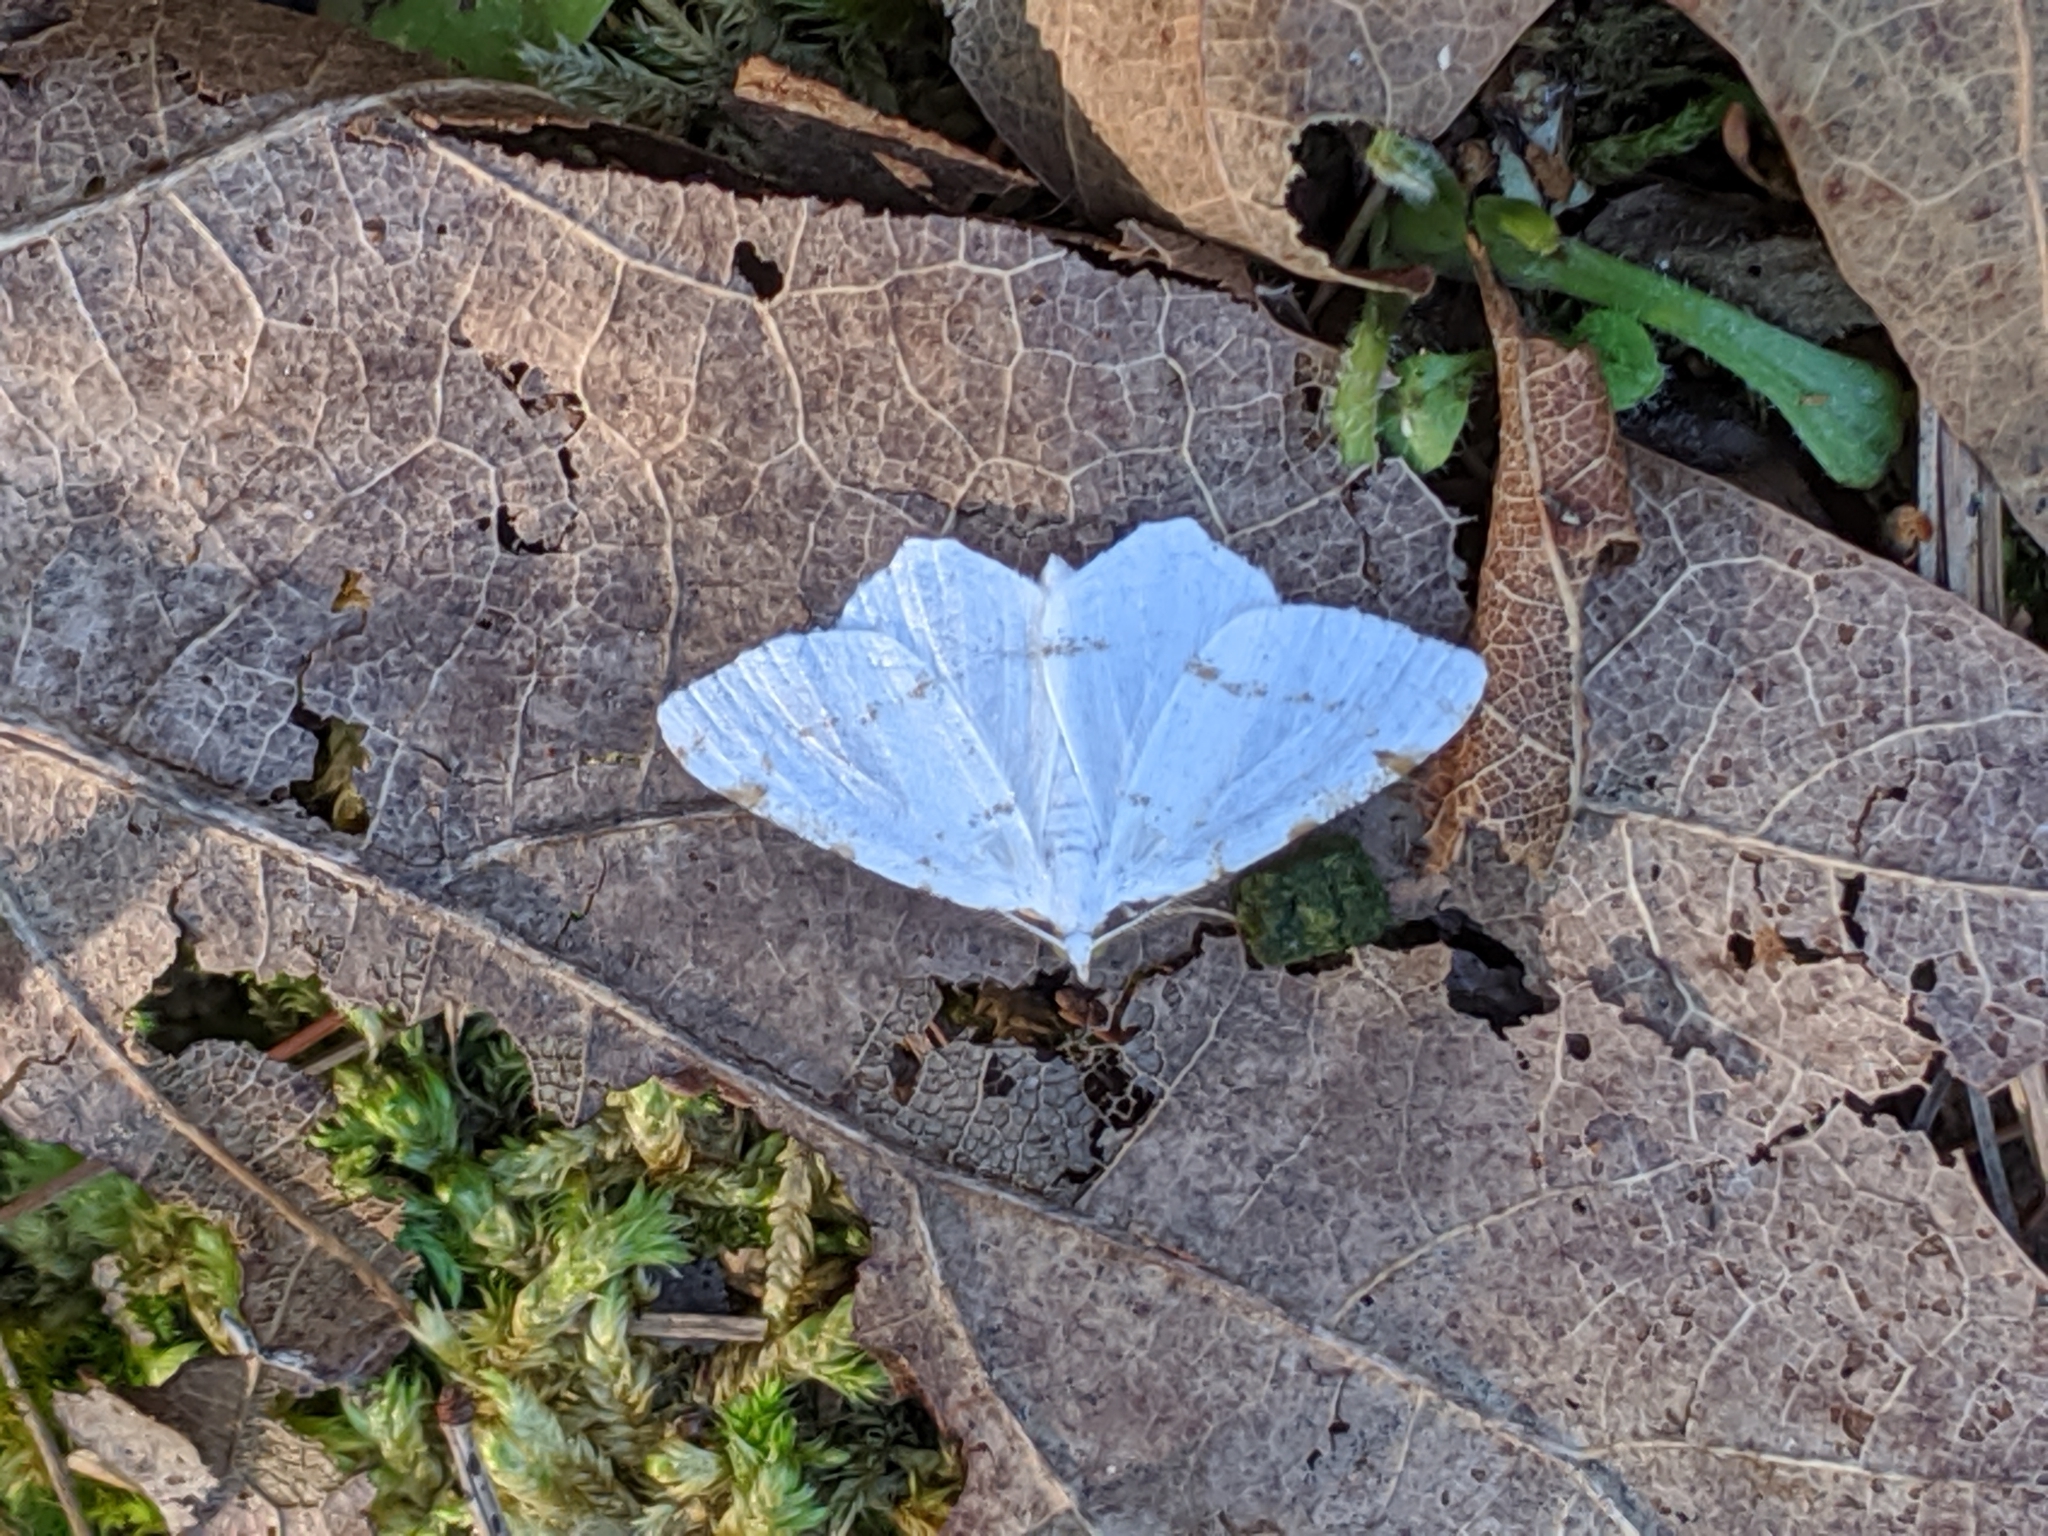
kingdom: Animalia
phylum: Arthropoda
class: Insecta
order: Lepidoptera
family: Geometridae
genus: Macaria
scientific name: Macaria pustularia
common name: Lesser maple spanworm moth
